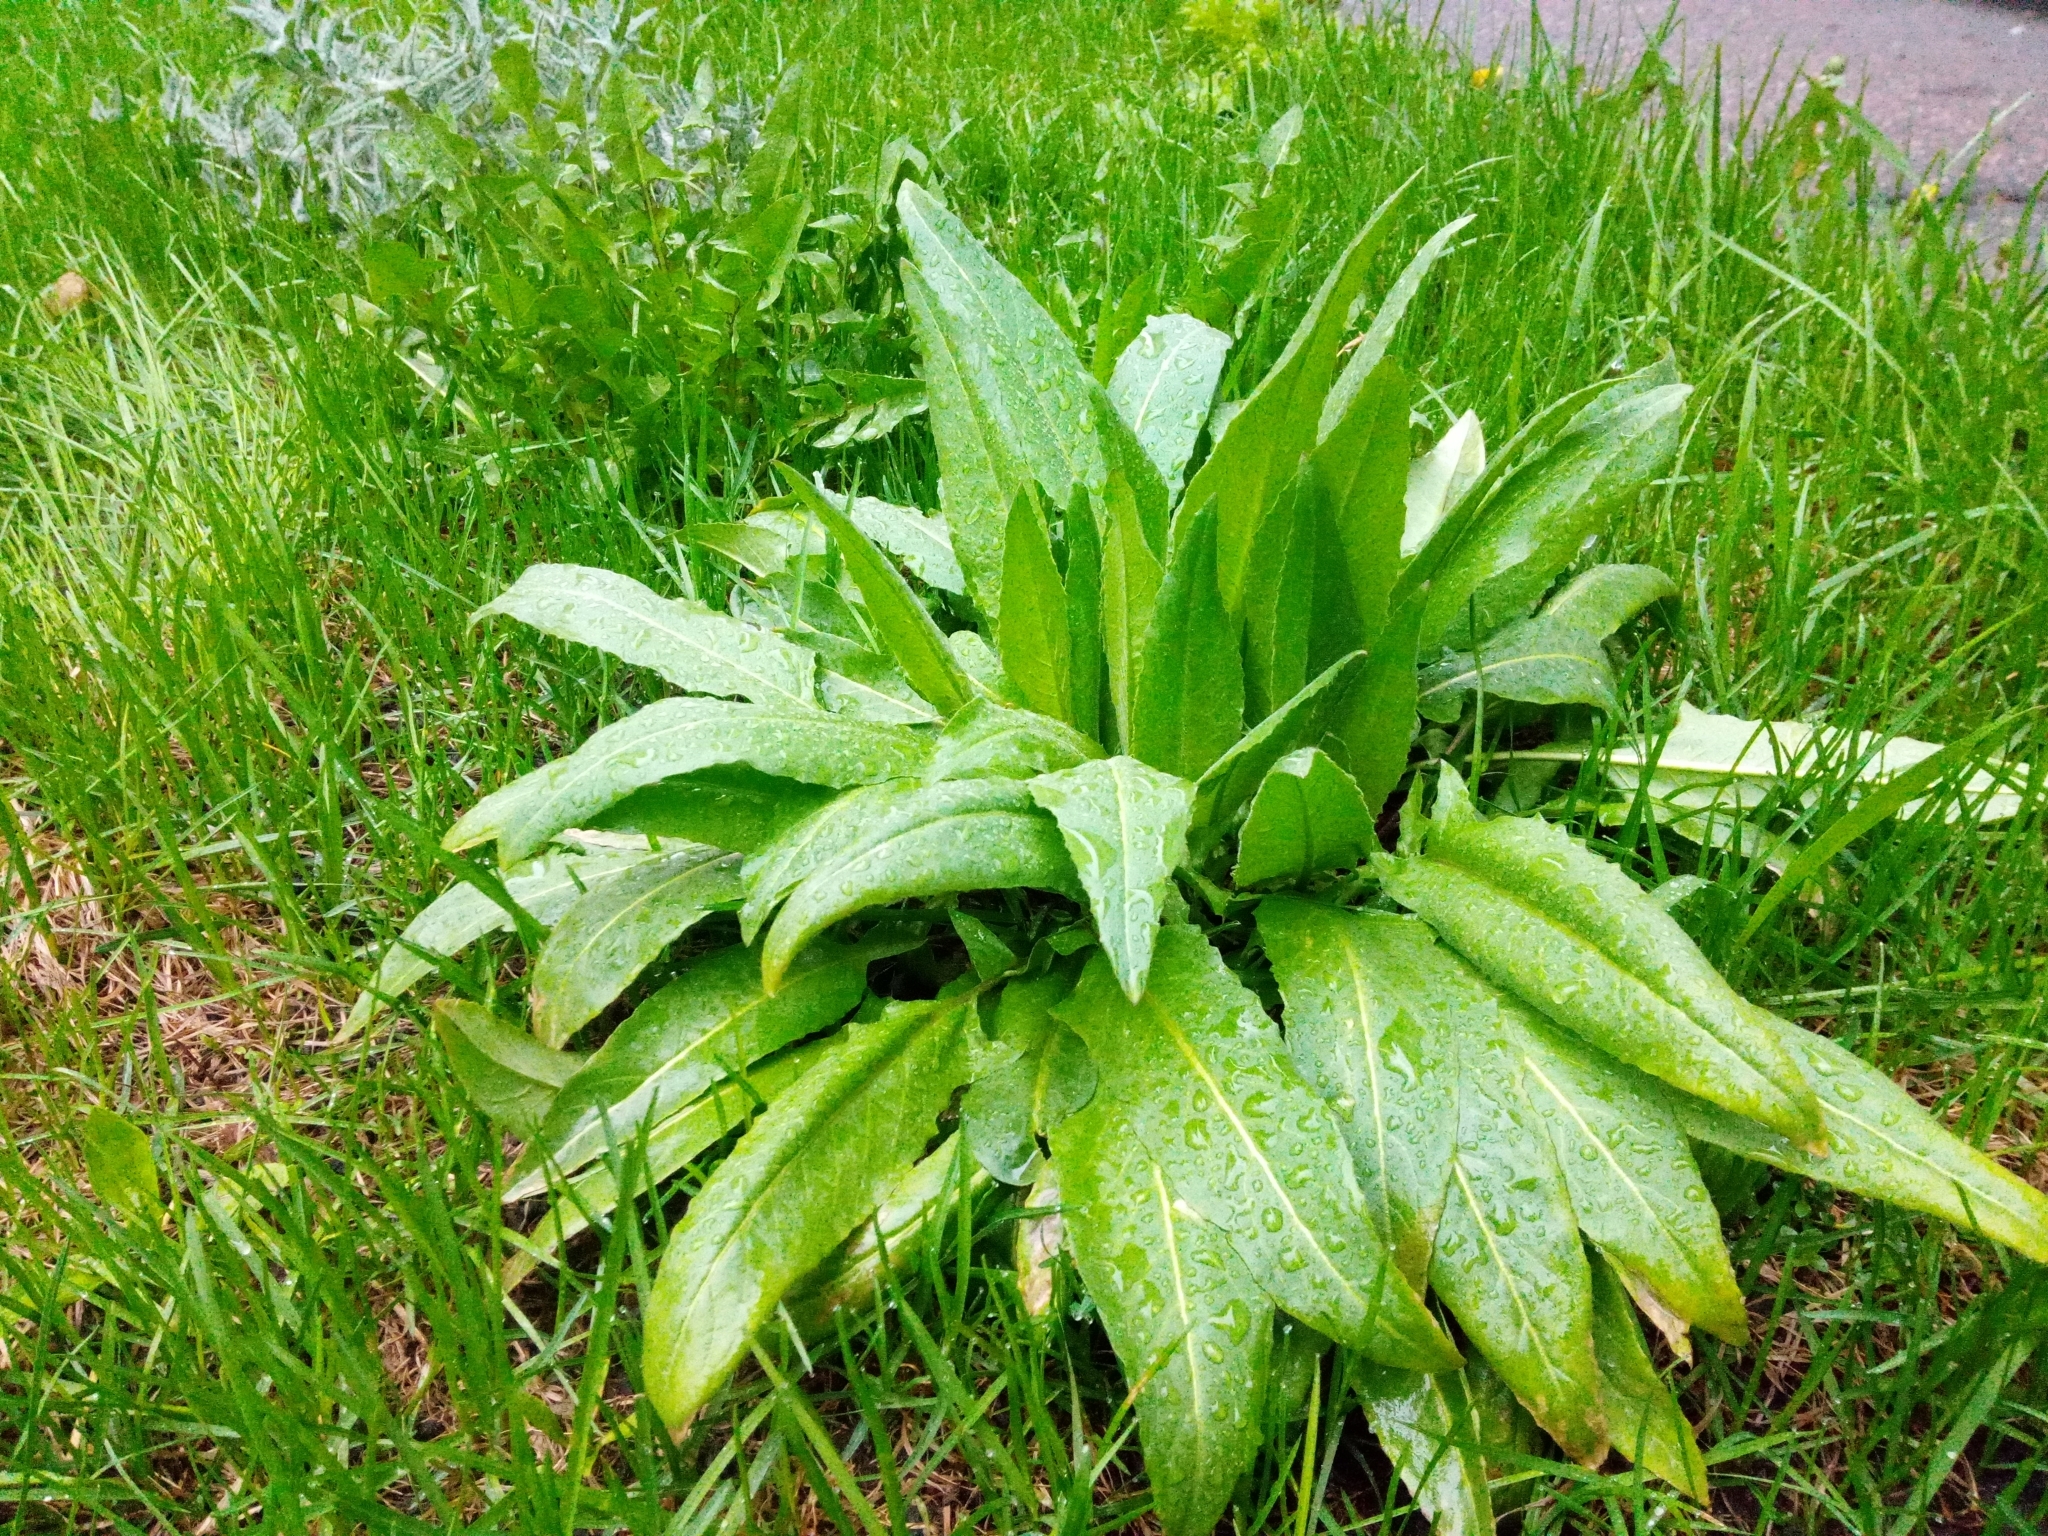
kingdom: Plantae
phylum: Tracheophyta
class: Magnoliopsida
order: Brassicales
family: Brassicaceae
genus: Bunias
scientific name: Bunias orientalis
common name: Warty-cabbage
